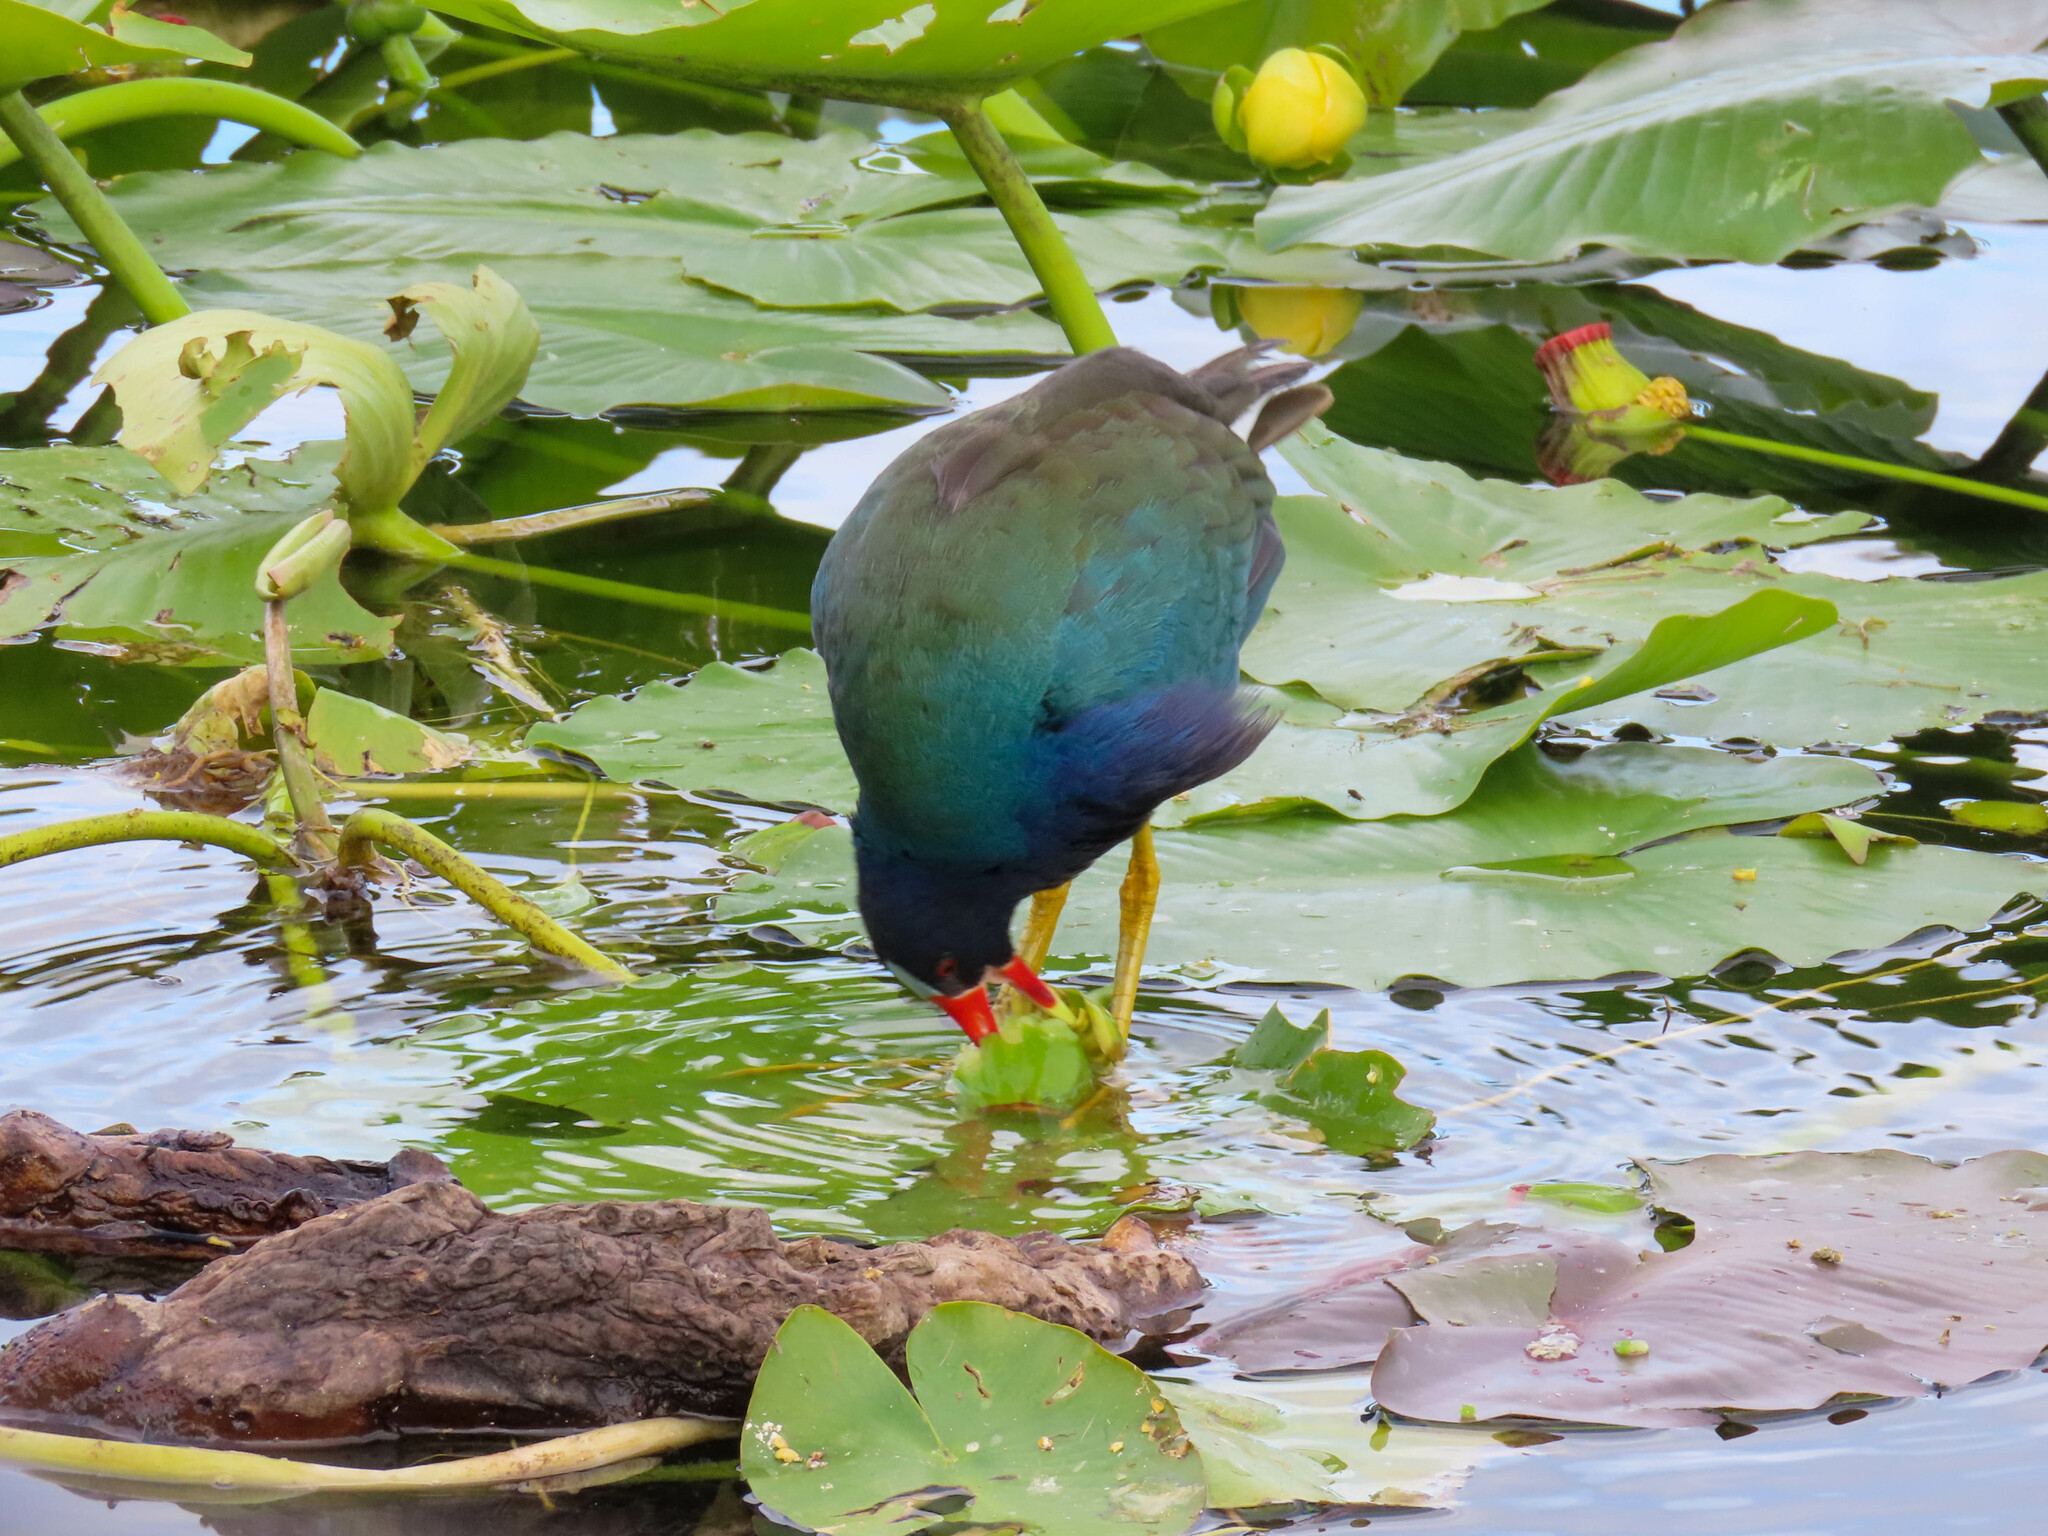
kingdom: Animalia
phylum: Chordata
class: Aves
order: Gruiformes
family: Rallidae
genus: Porphyrio
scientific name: Porphyrio martinica
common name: Purple gallinule
